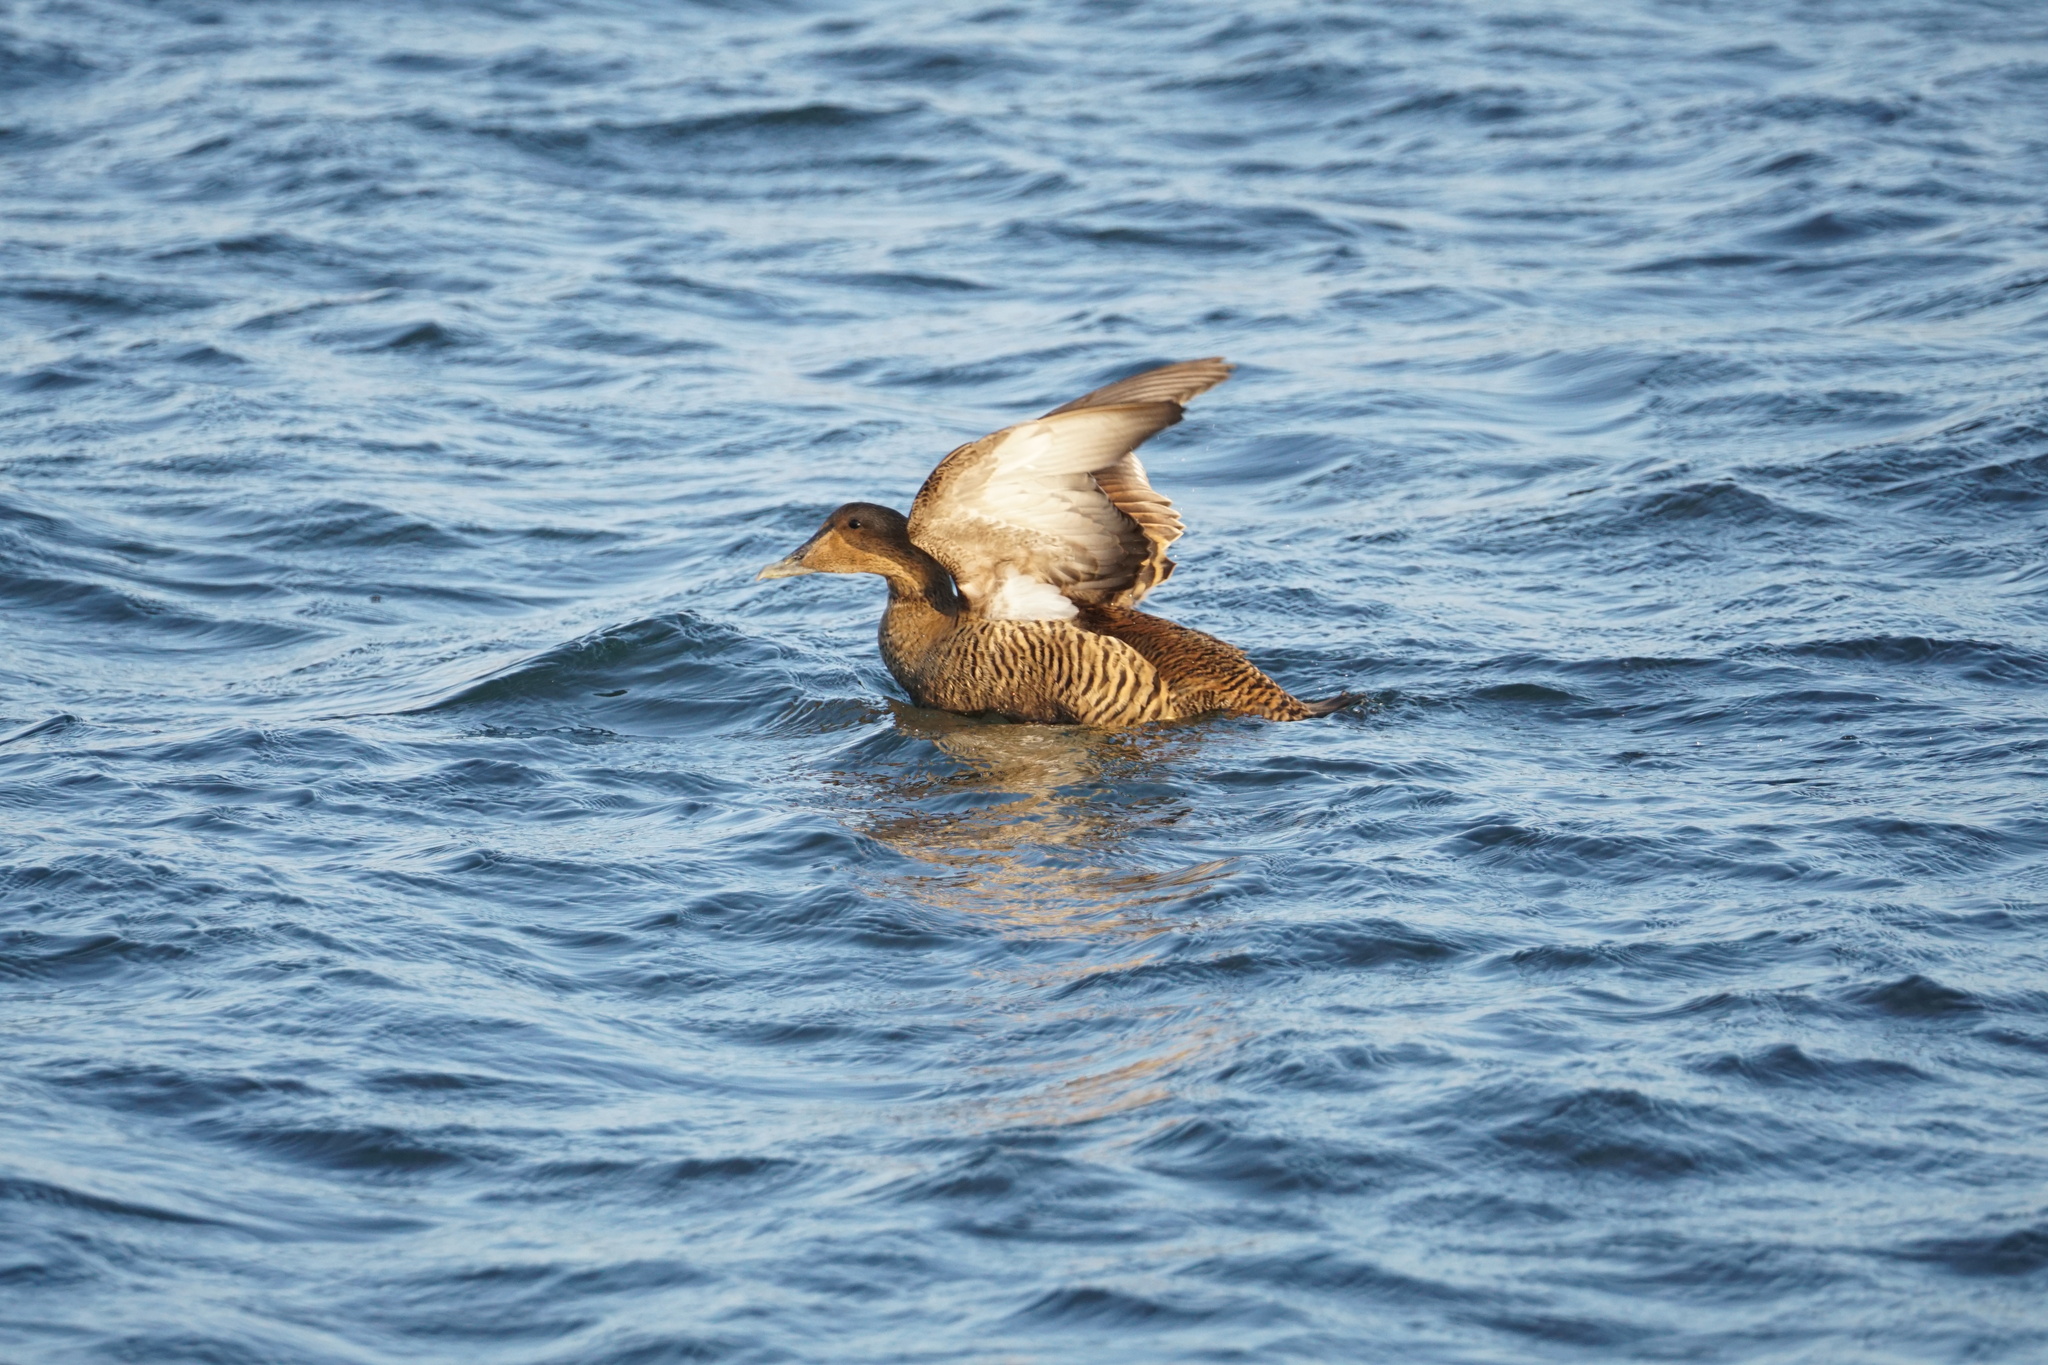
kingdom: Animalia
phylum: Chordata
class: Aves
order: Anseriformes
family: Anatidae
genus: Somateria
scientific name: Somateria mollissima
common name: Common eider
